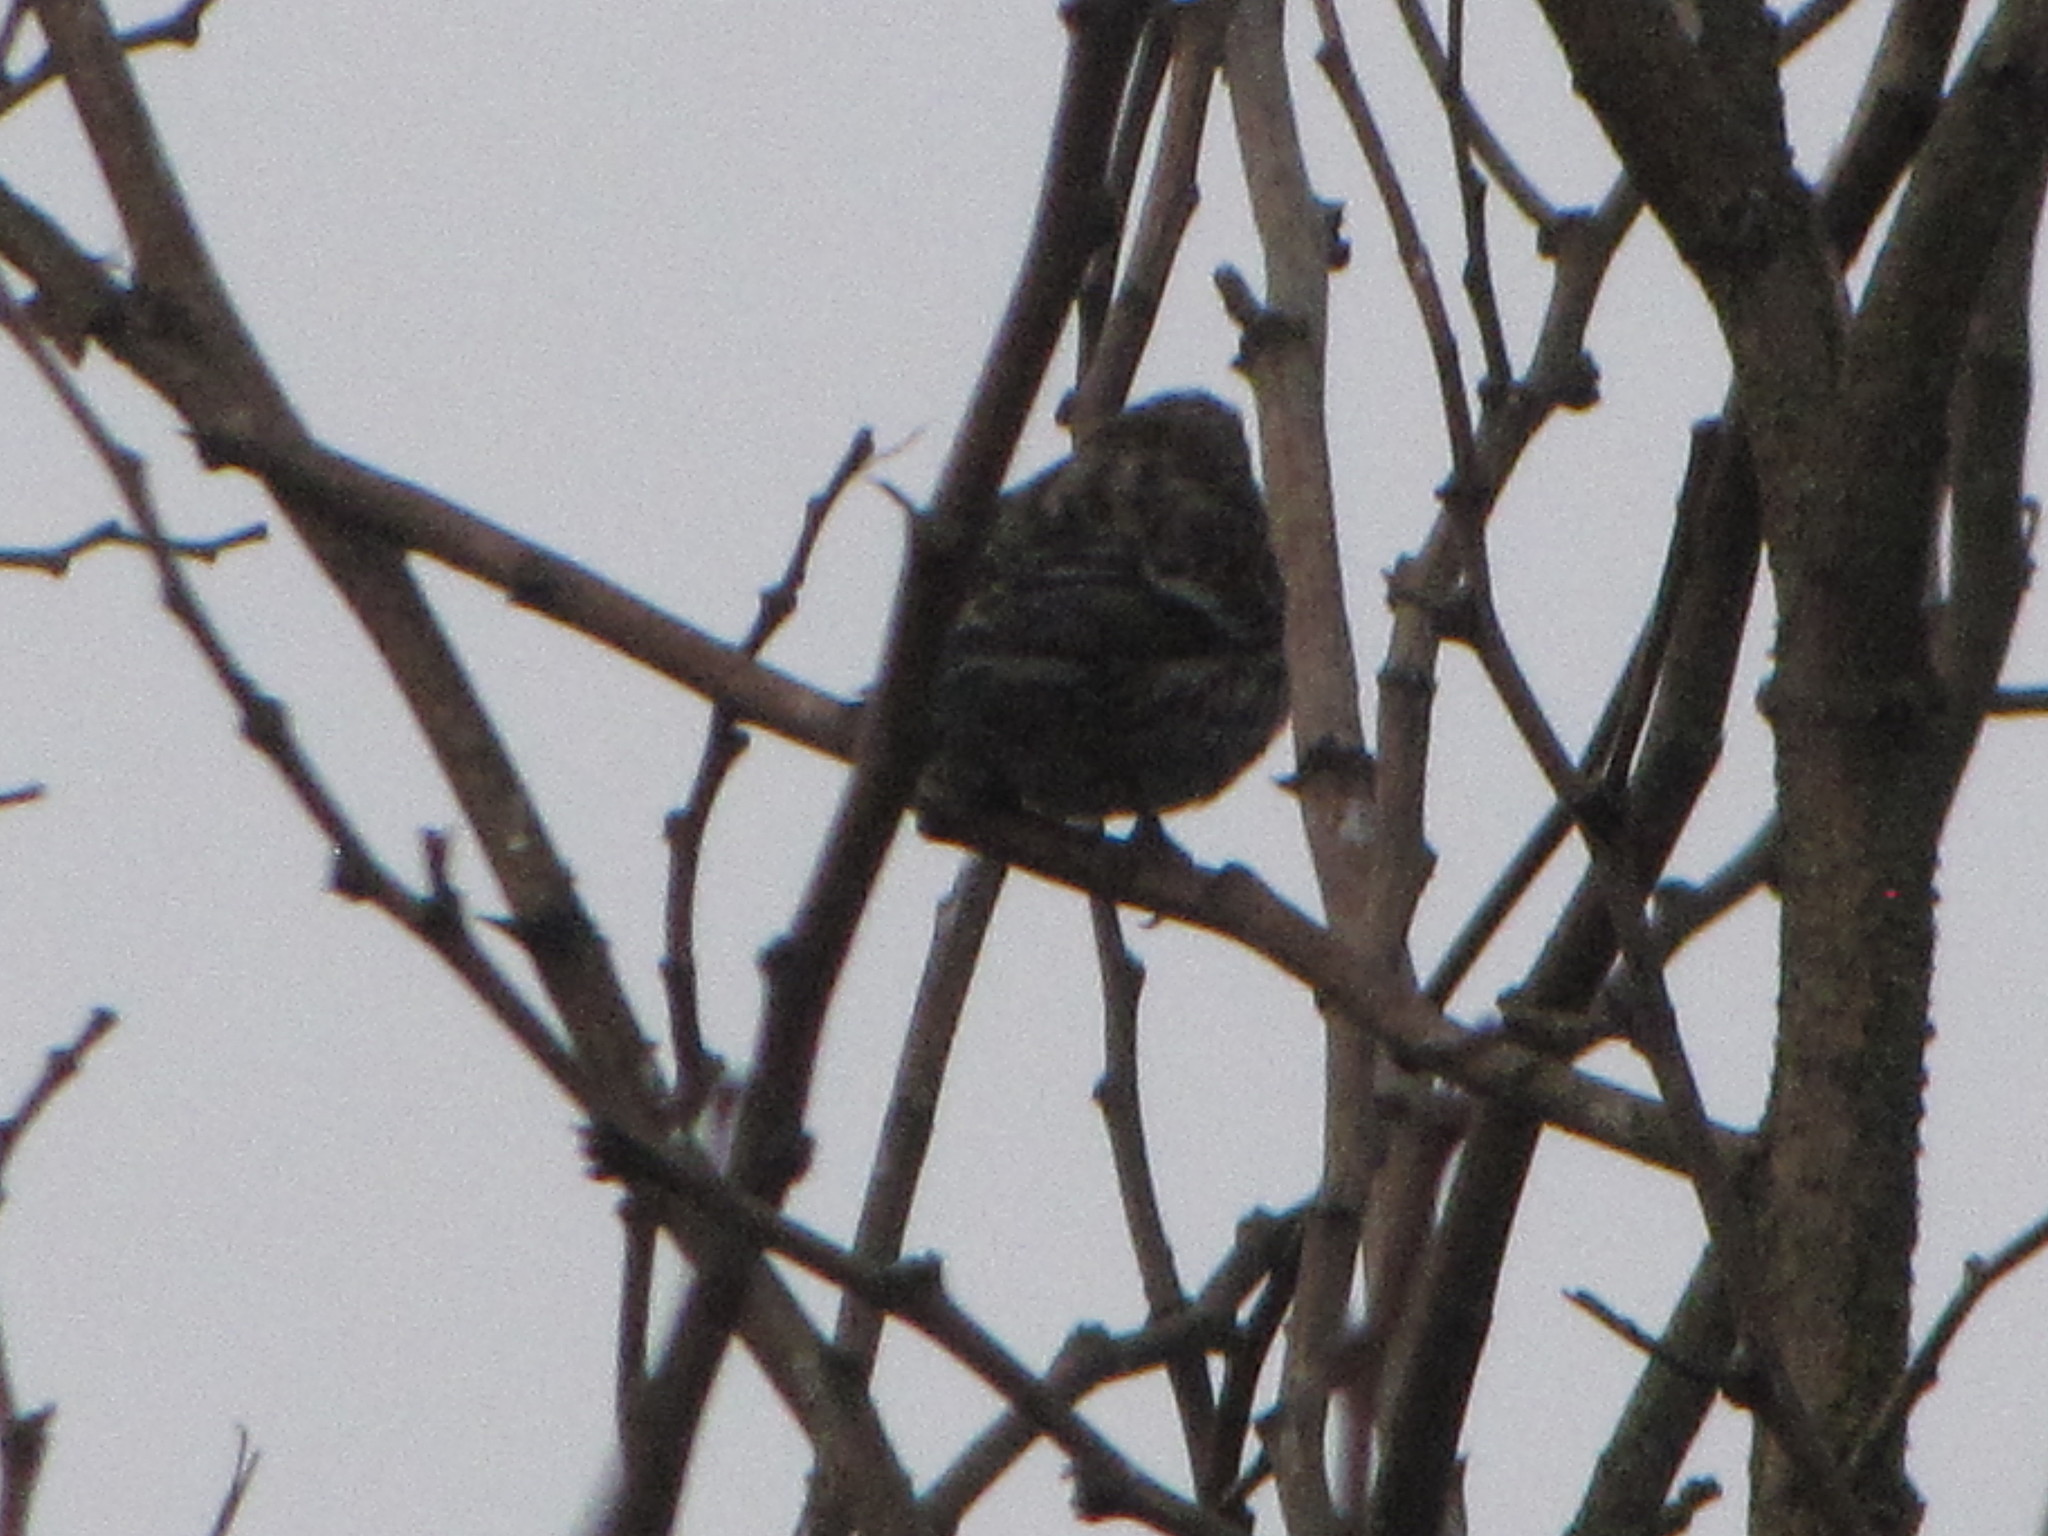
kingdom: Animalia
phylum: Chordata
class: Aves
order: Passeriformes
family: Fringillidae
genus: Spinus
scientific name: Spinus pinus
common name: Pine siskin
